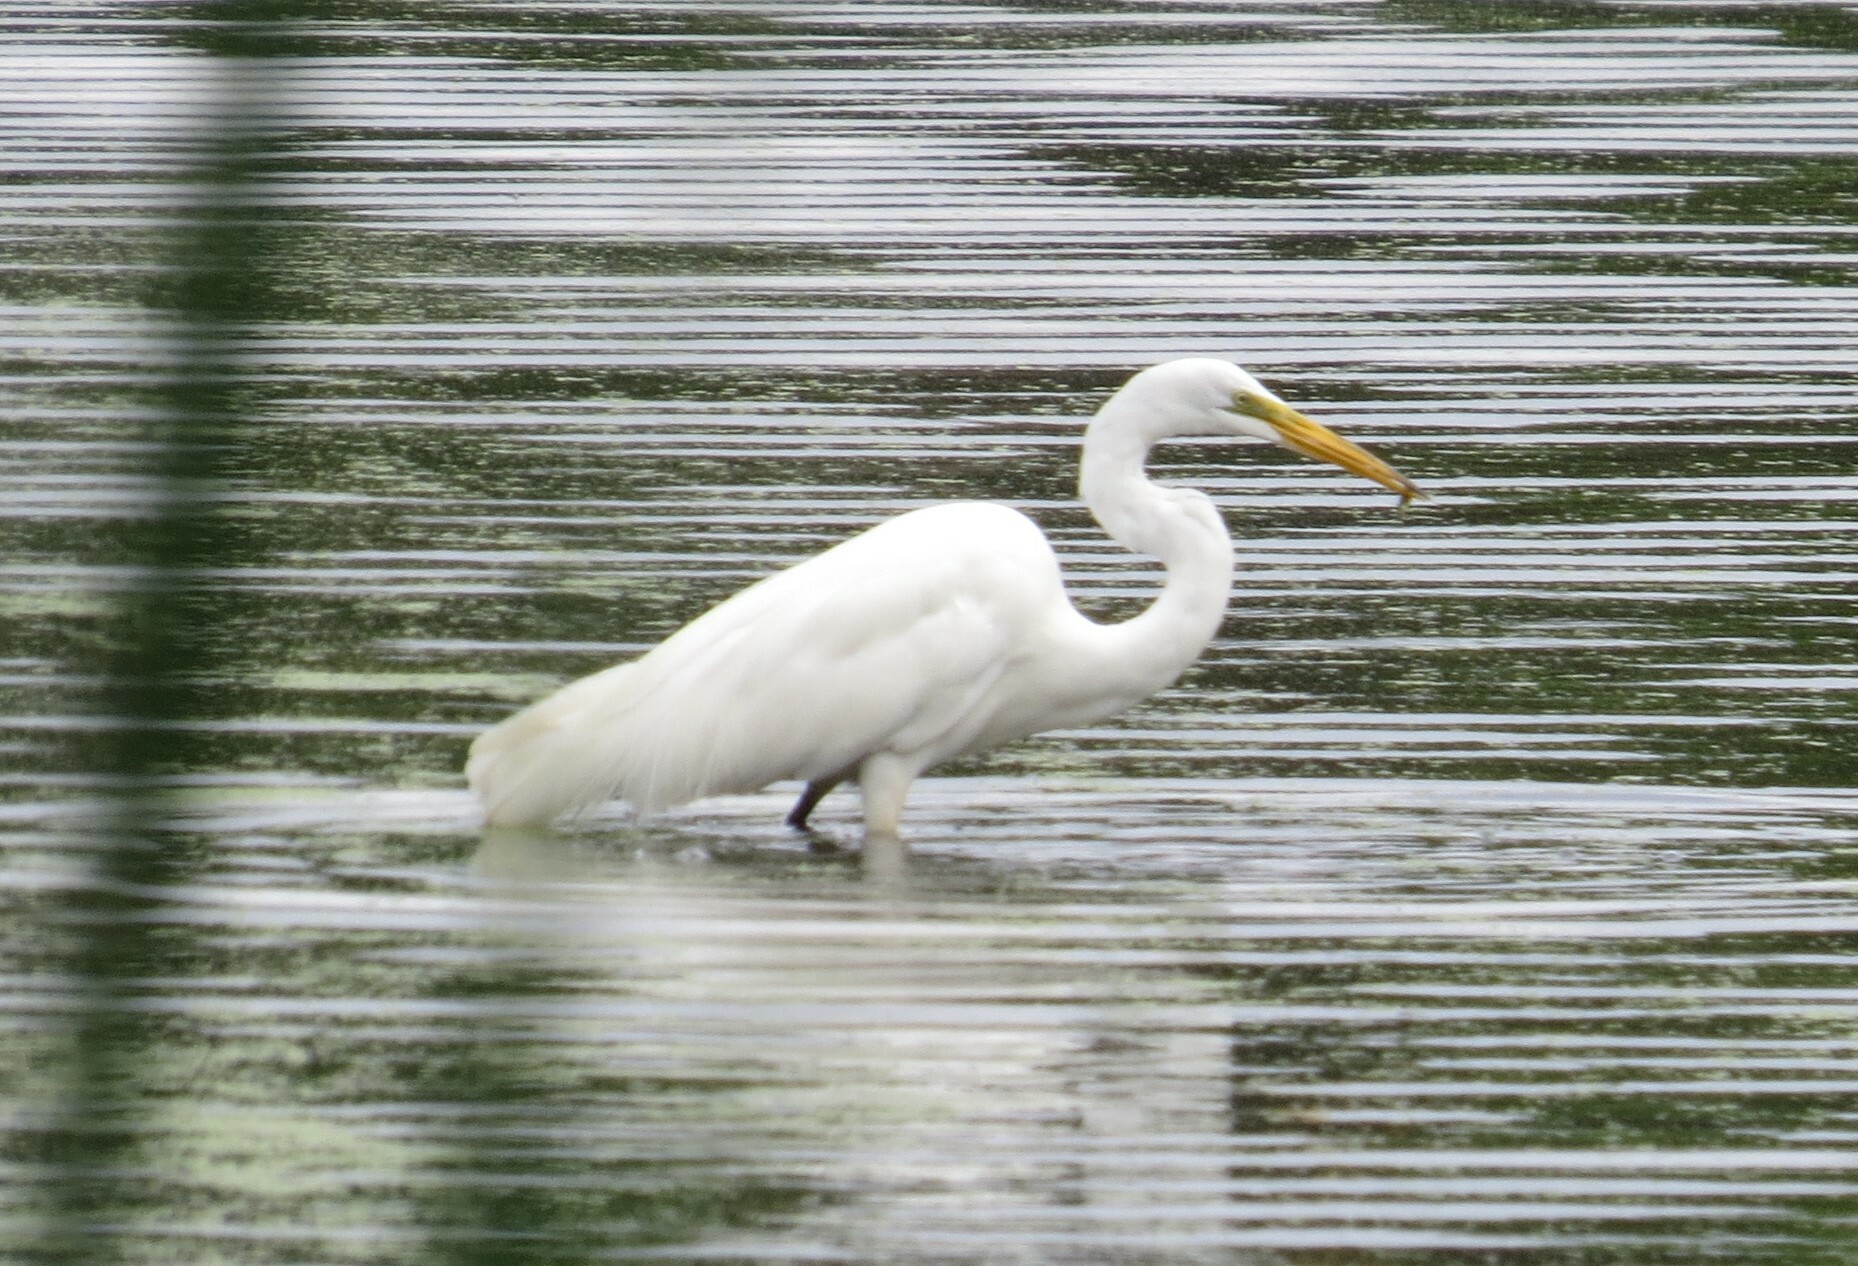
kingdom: Animalia
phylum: Chordata
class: Aves
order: Pelecaniformes
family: Ardeidae
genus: Ardea
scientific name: Ardea alba
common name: Great egret
